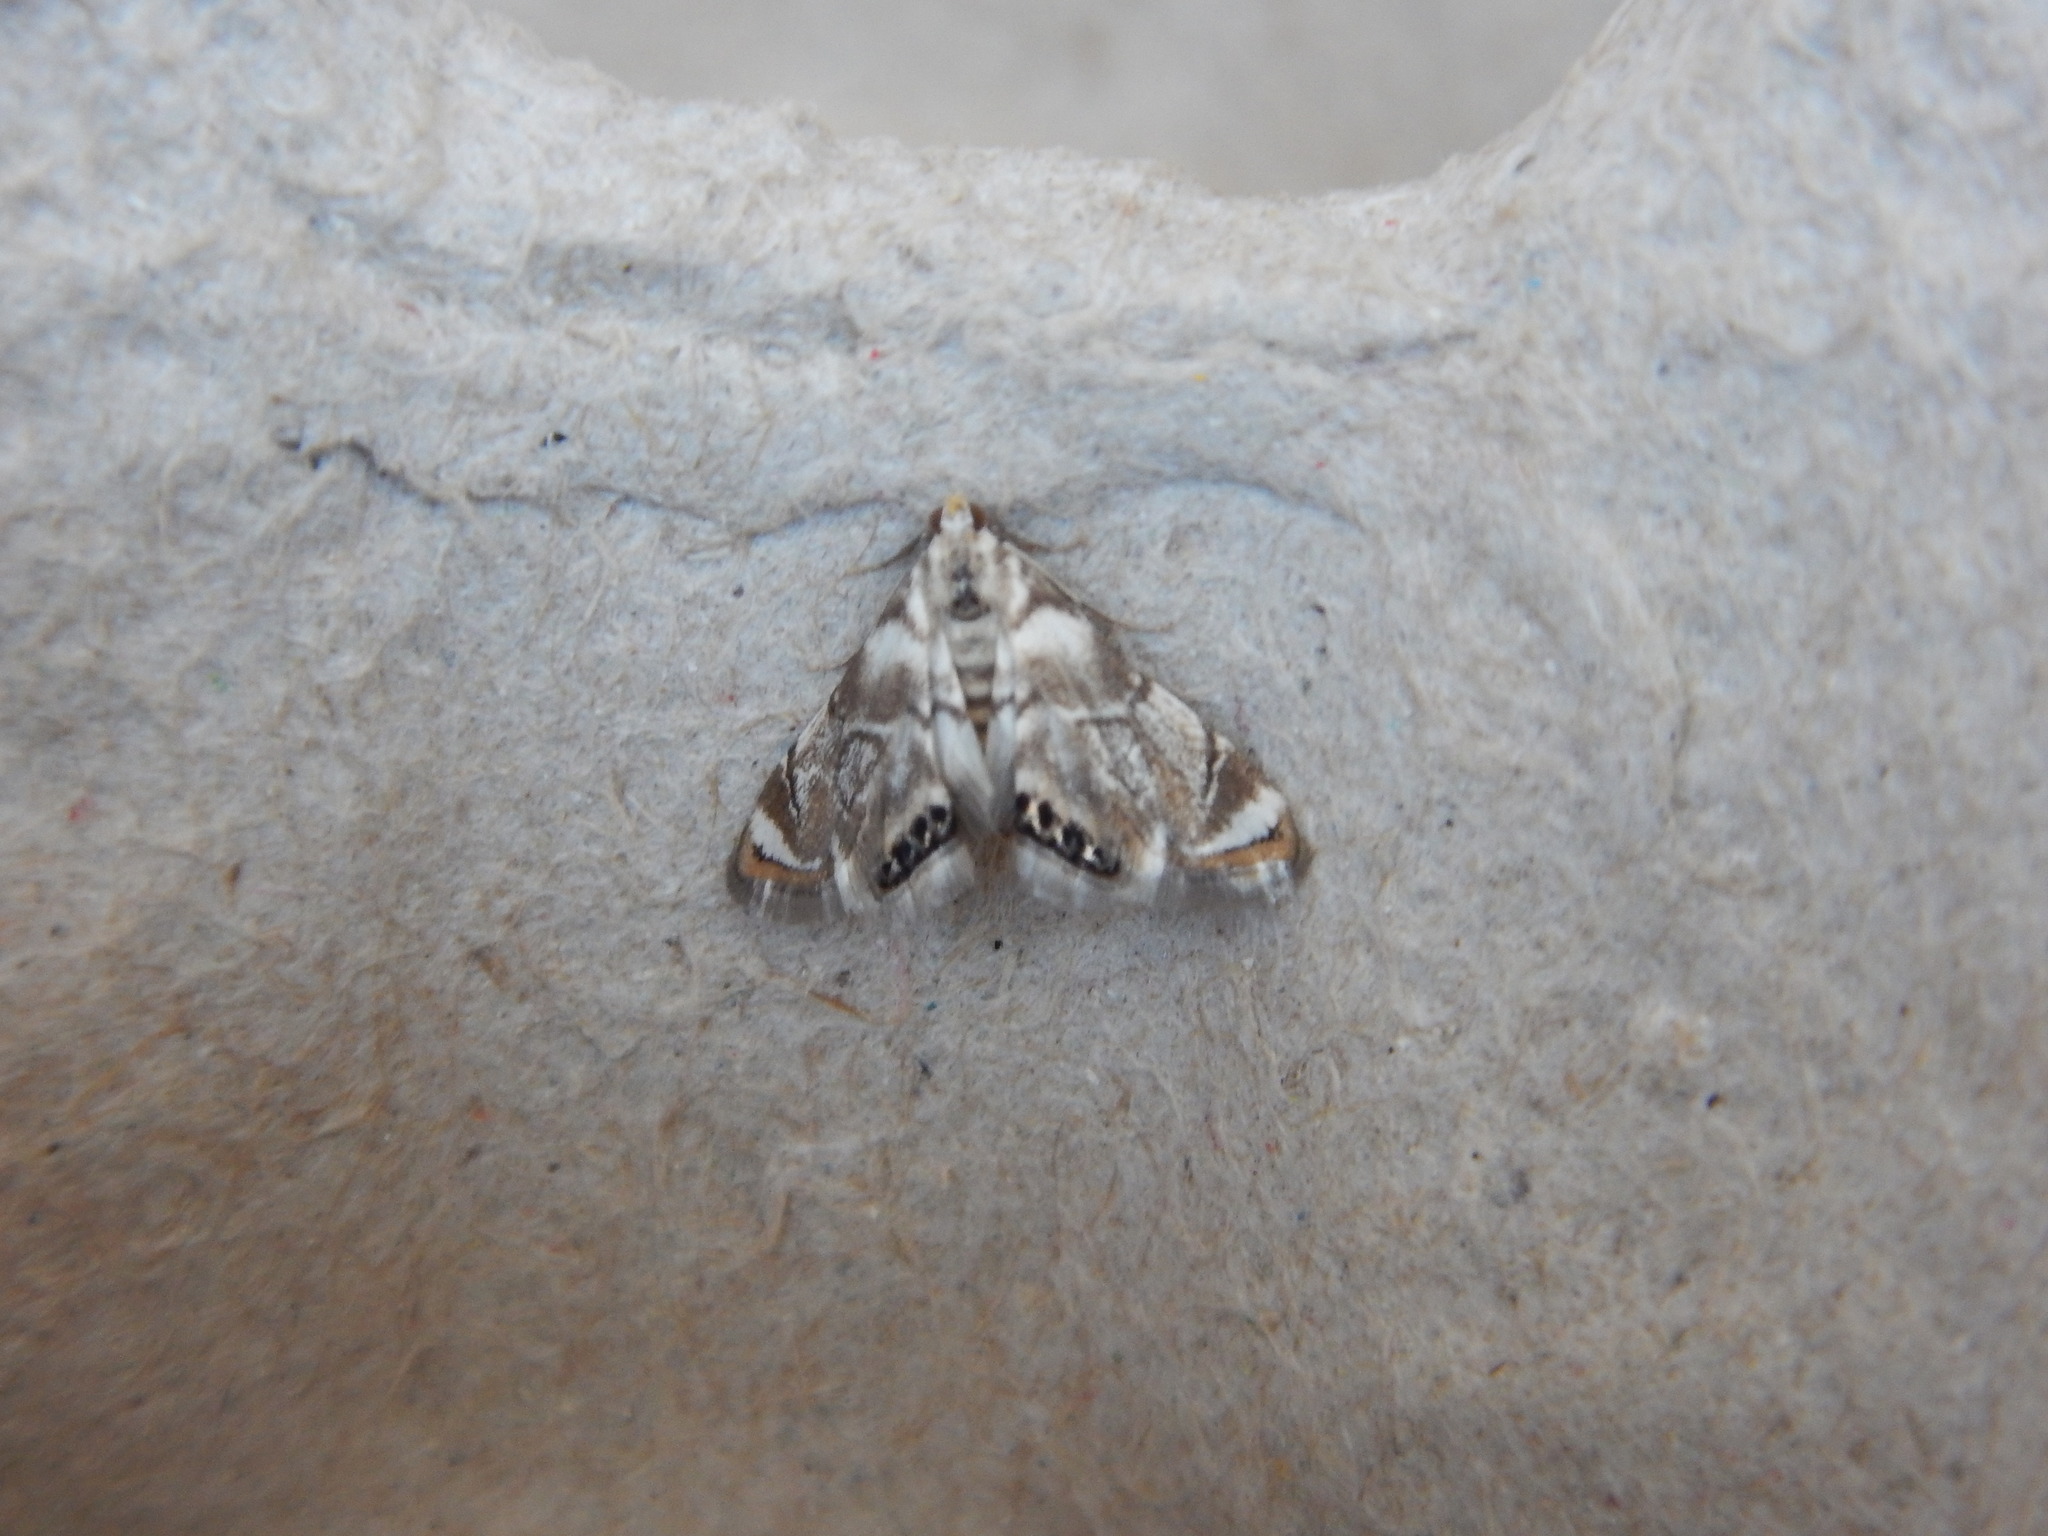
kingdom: Animalia
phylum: Arthropoda
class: Insecta
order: Lepidoptera
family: Crambidae
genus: Petrophila
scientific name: Petrophila canadensis
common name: Canadian petrophila
